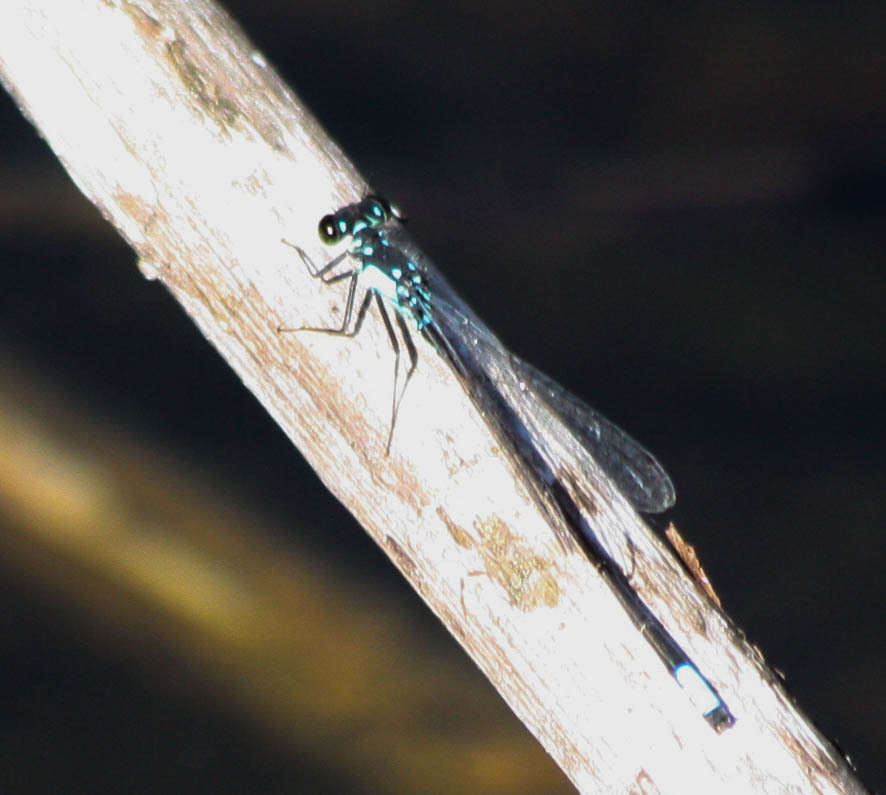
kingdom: Animalia
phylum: Arthropoda
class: Insecta
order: Odonata
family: Coenagrionidae
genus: Ischnura
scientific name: Ischnura cervula
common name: Pacific forktail
